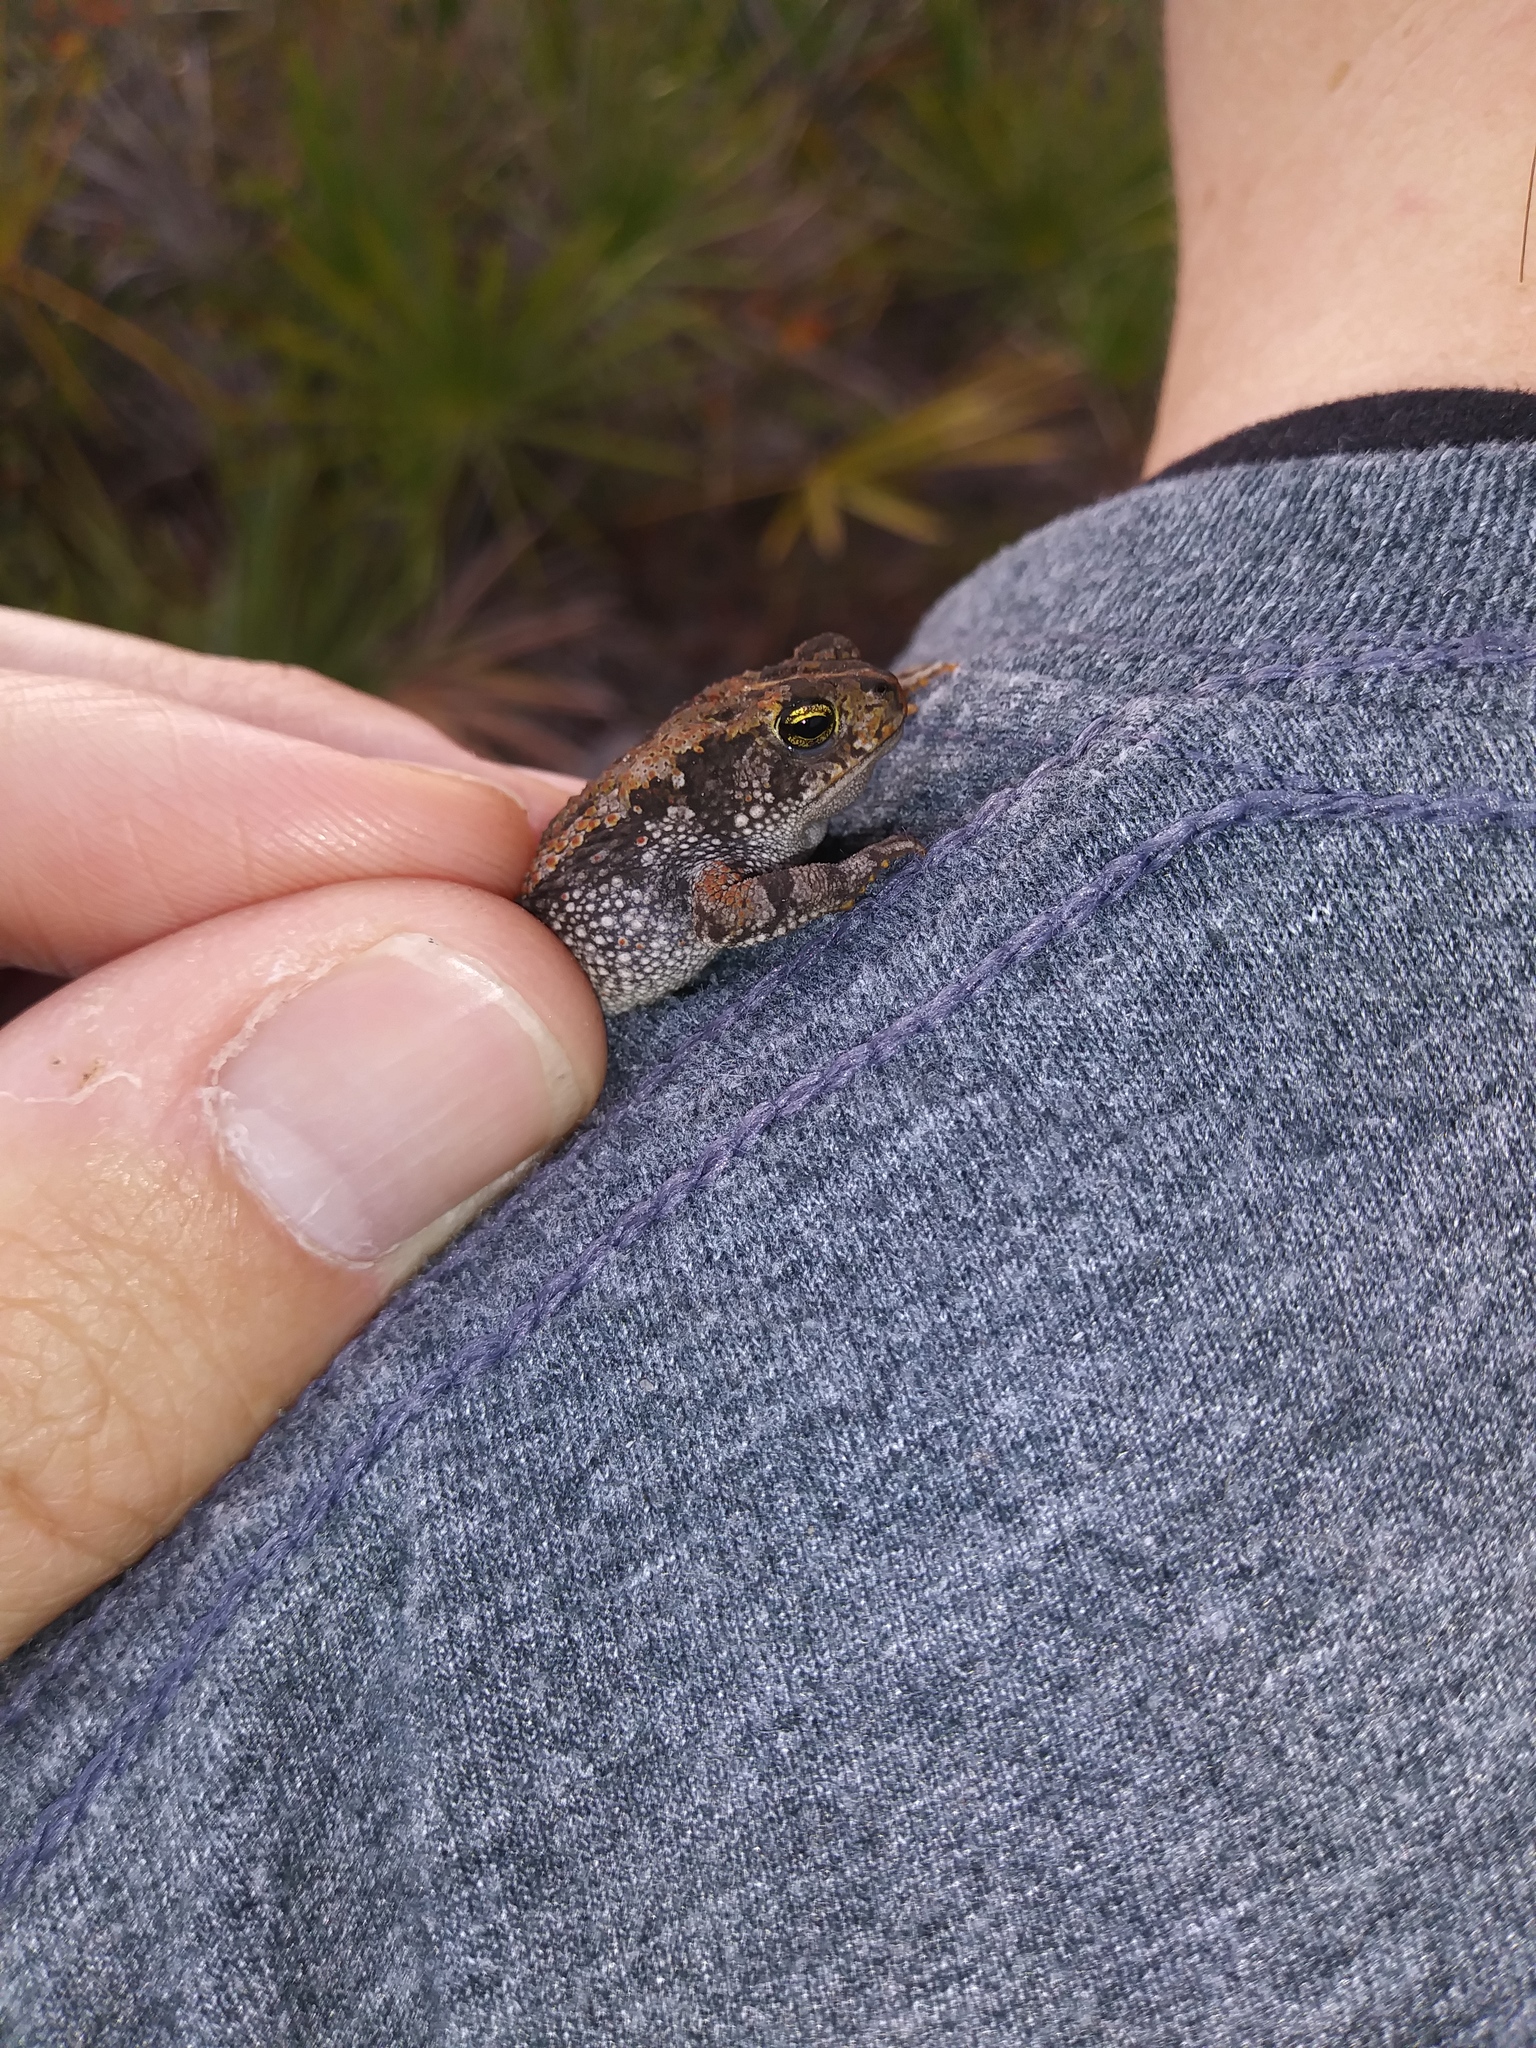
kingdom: Animalia
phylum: Chordata
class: Amphibia
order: Anura
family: Bufonidae
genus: Anaxyrus
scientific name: Anaxyrus quercicus
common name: Oak toad
